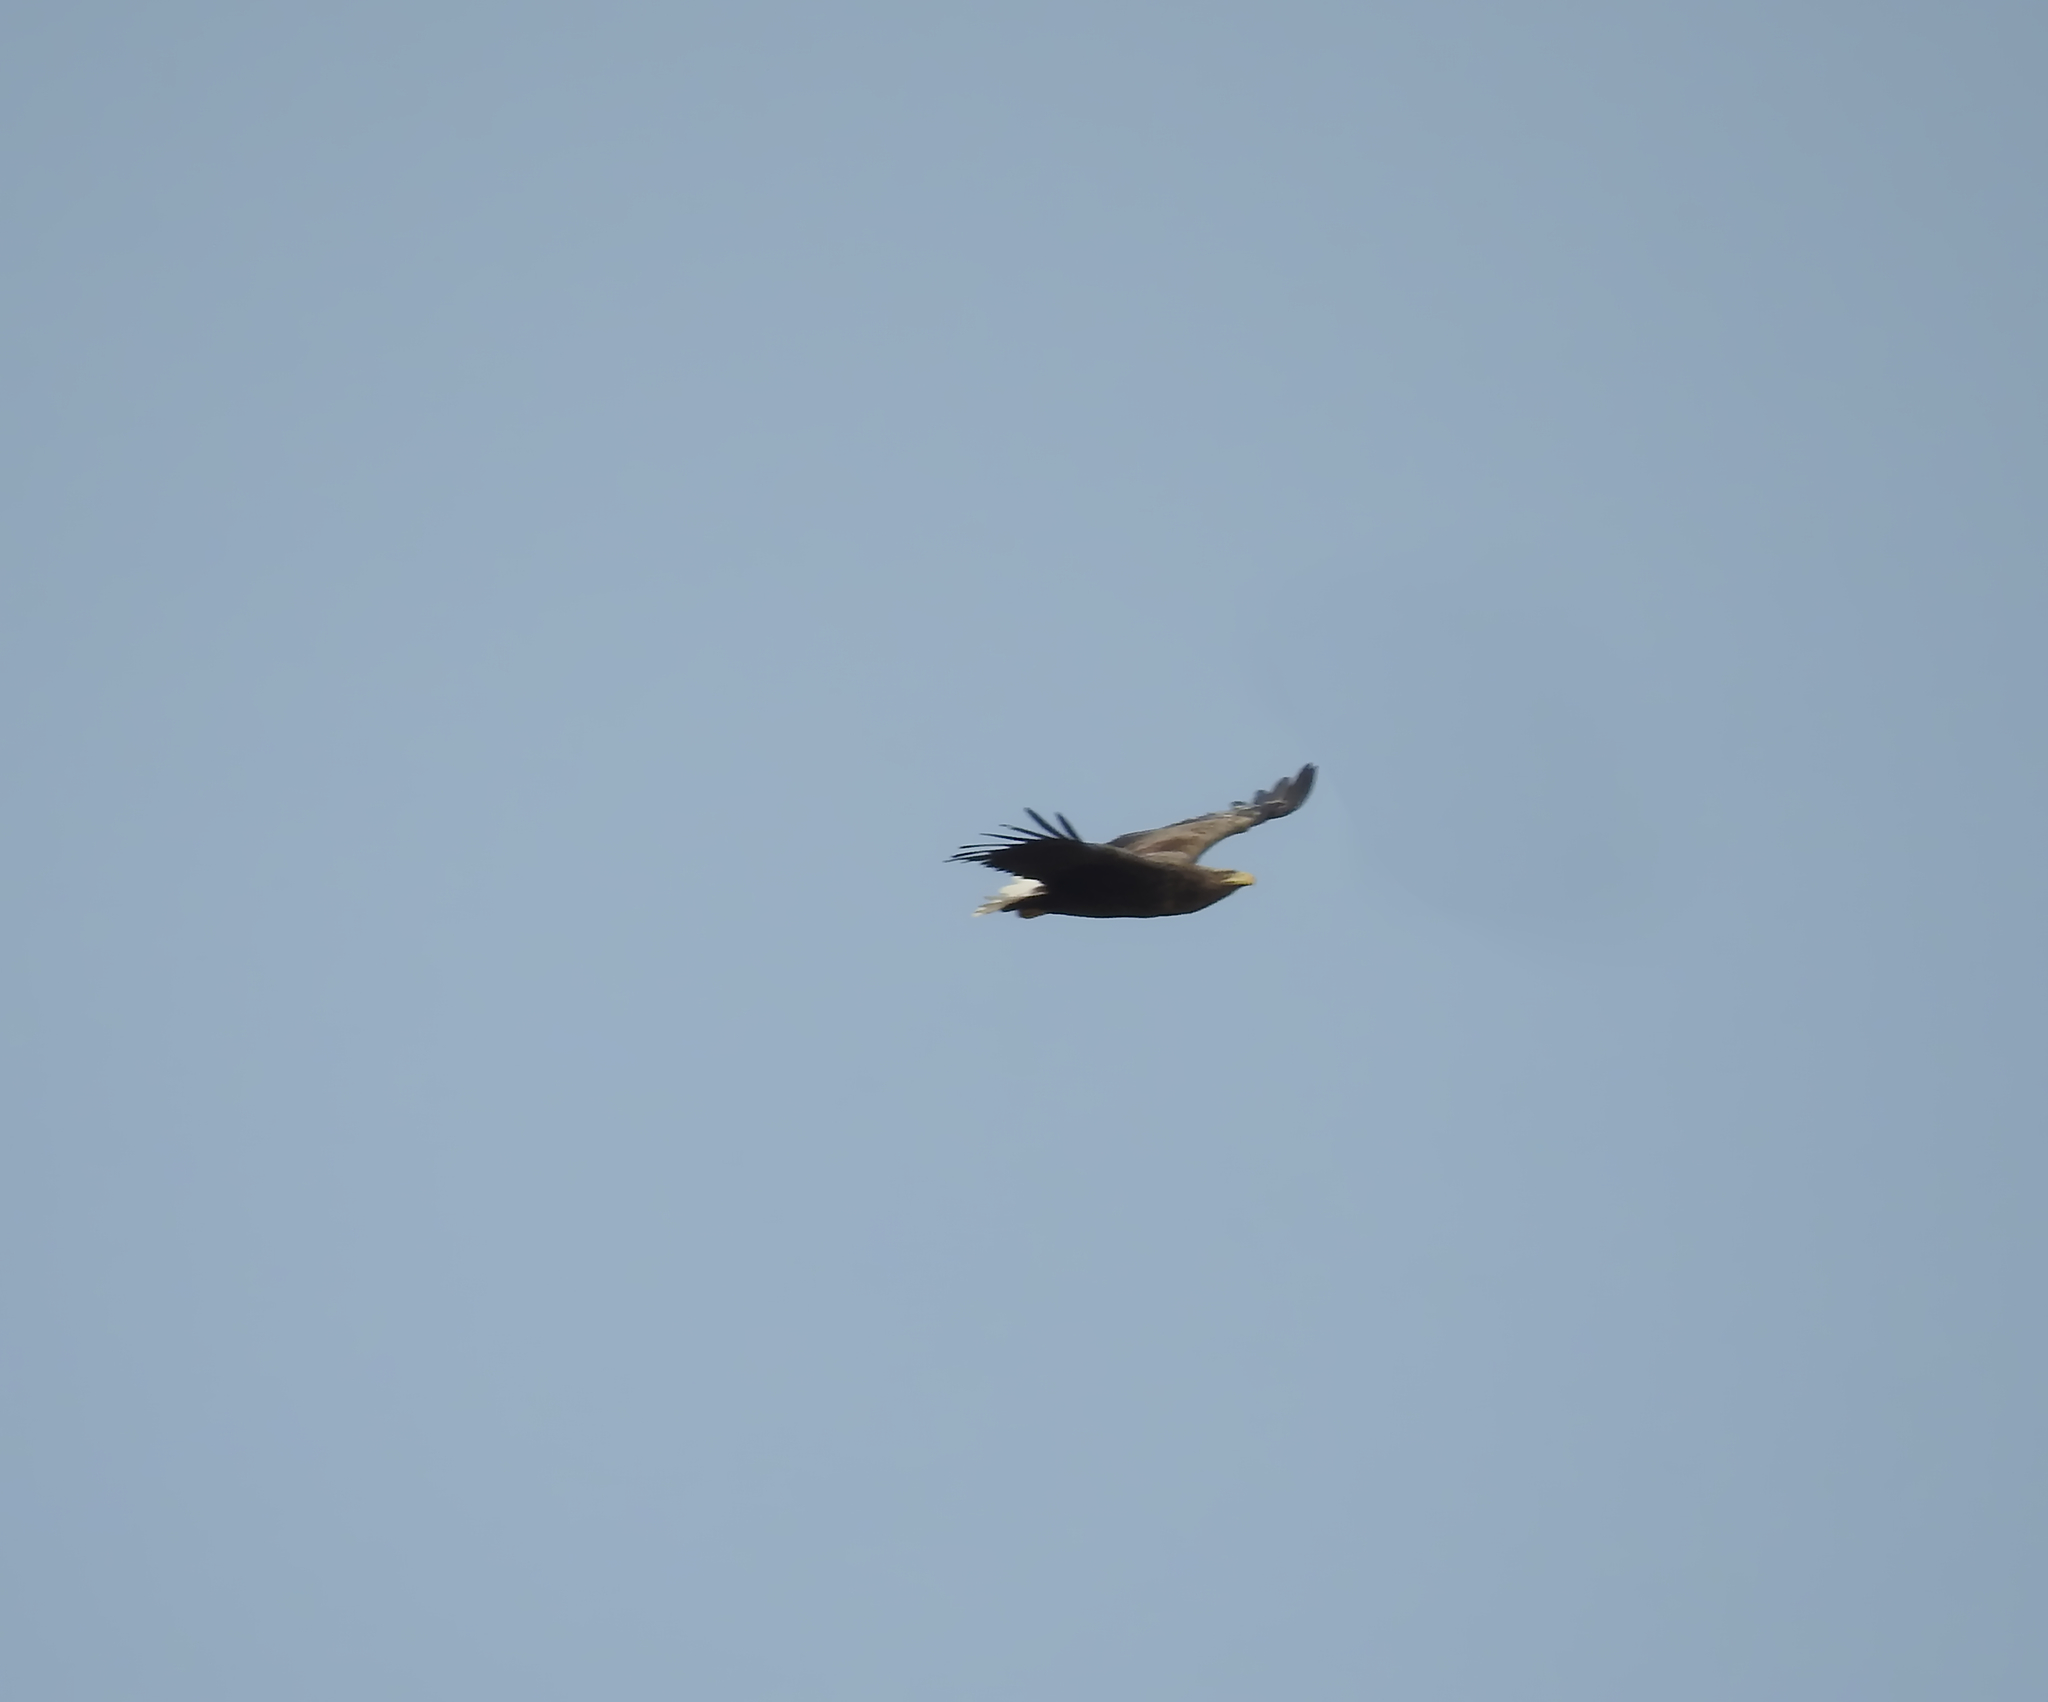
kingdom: Animalia
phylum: Chordata
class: Aves
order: Accipitriformes
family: Accipitridae
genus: Haliaeetus
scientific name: Haliaeetus albicilla
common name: White-tailed eagle
